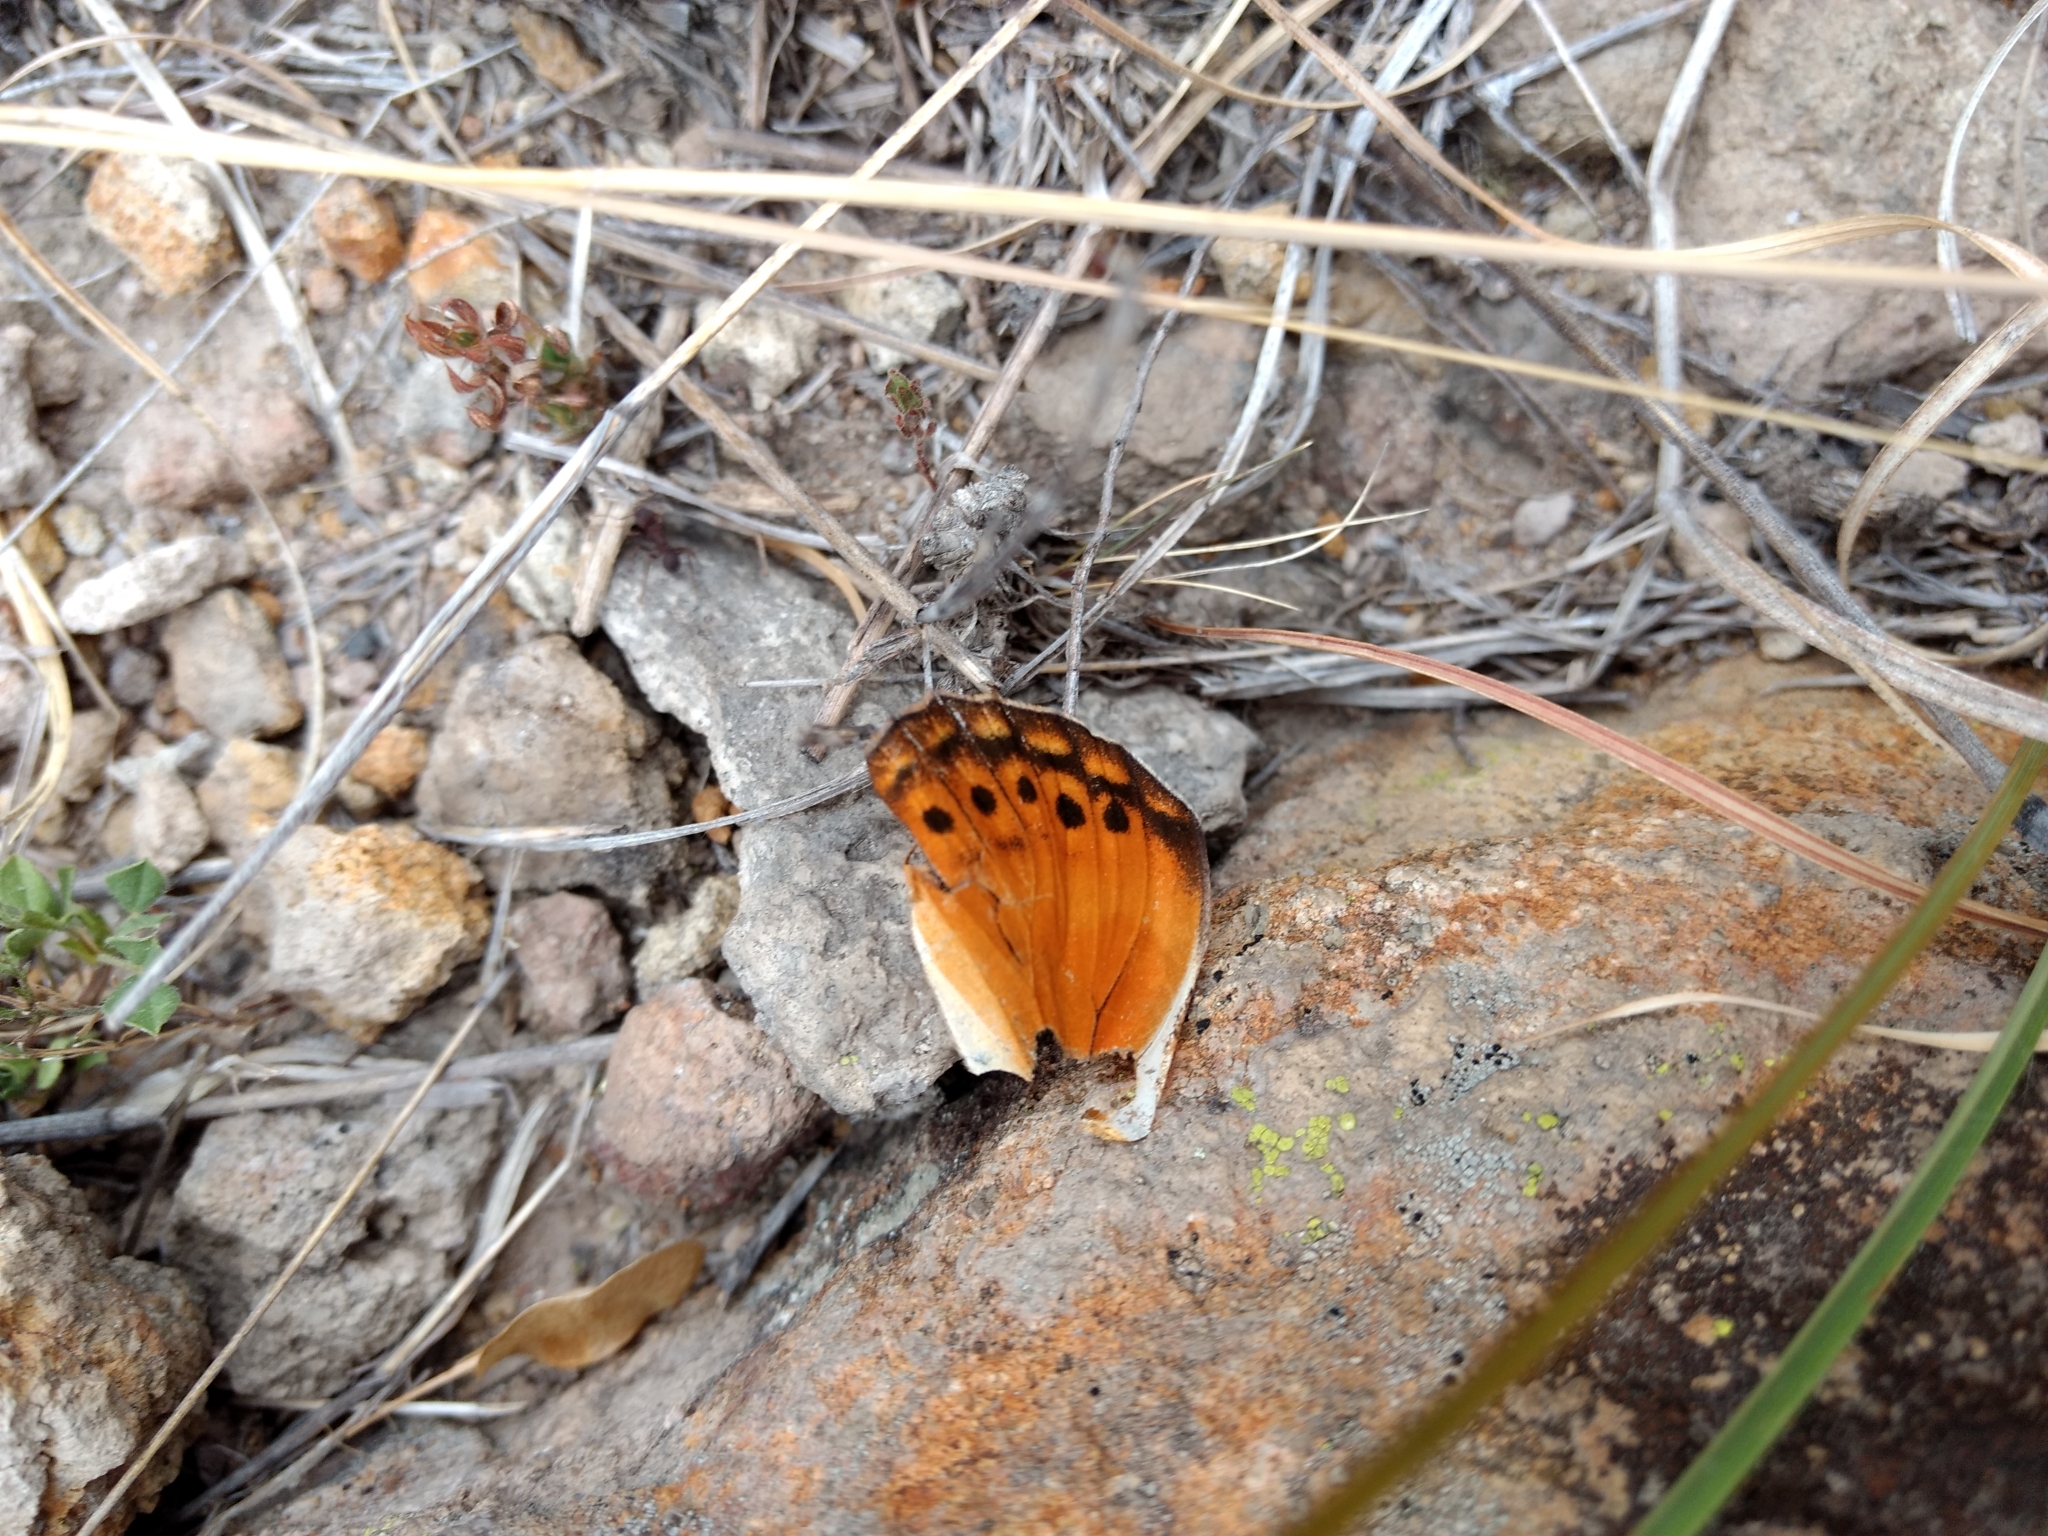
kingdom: Animalia
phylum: Arthropoda
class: Insecta
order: Lepidoptera
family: Nymphalidae
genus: Euptoieta
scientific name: Euptoieta hegesia
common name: Mexican fritillary
